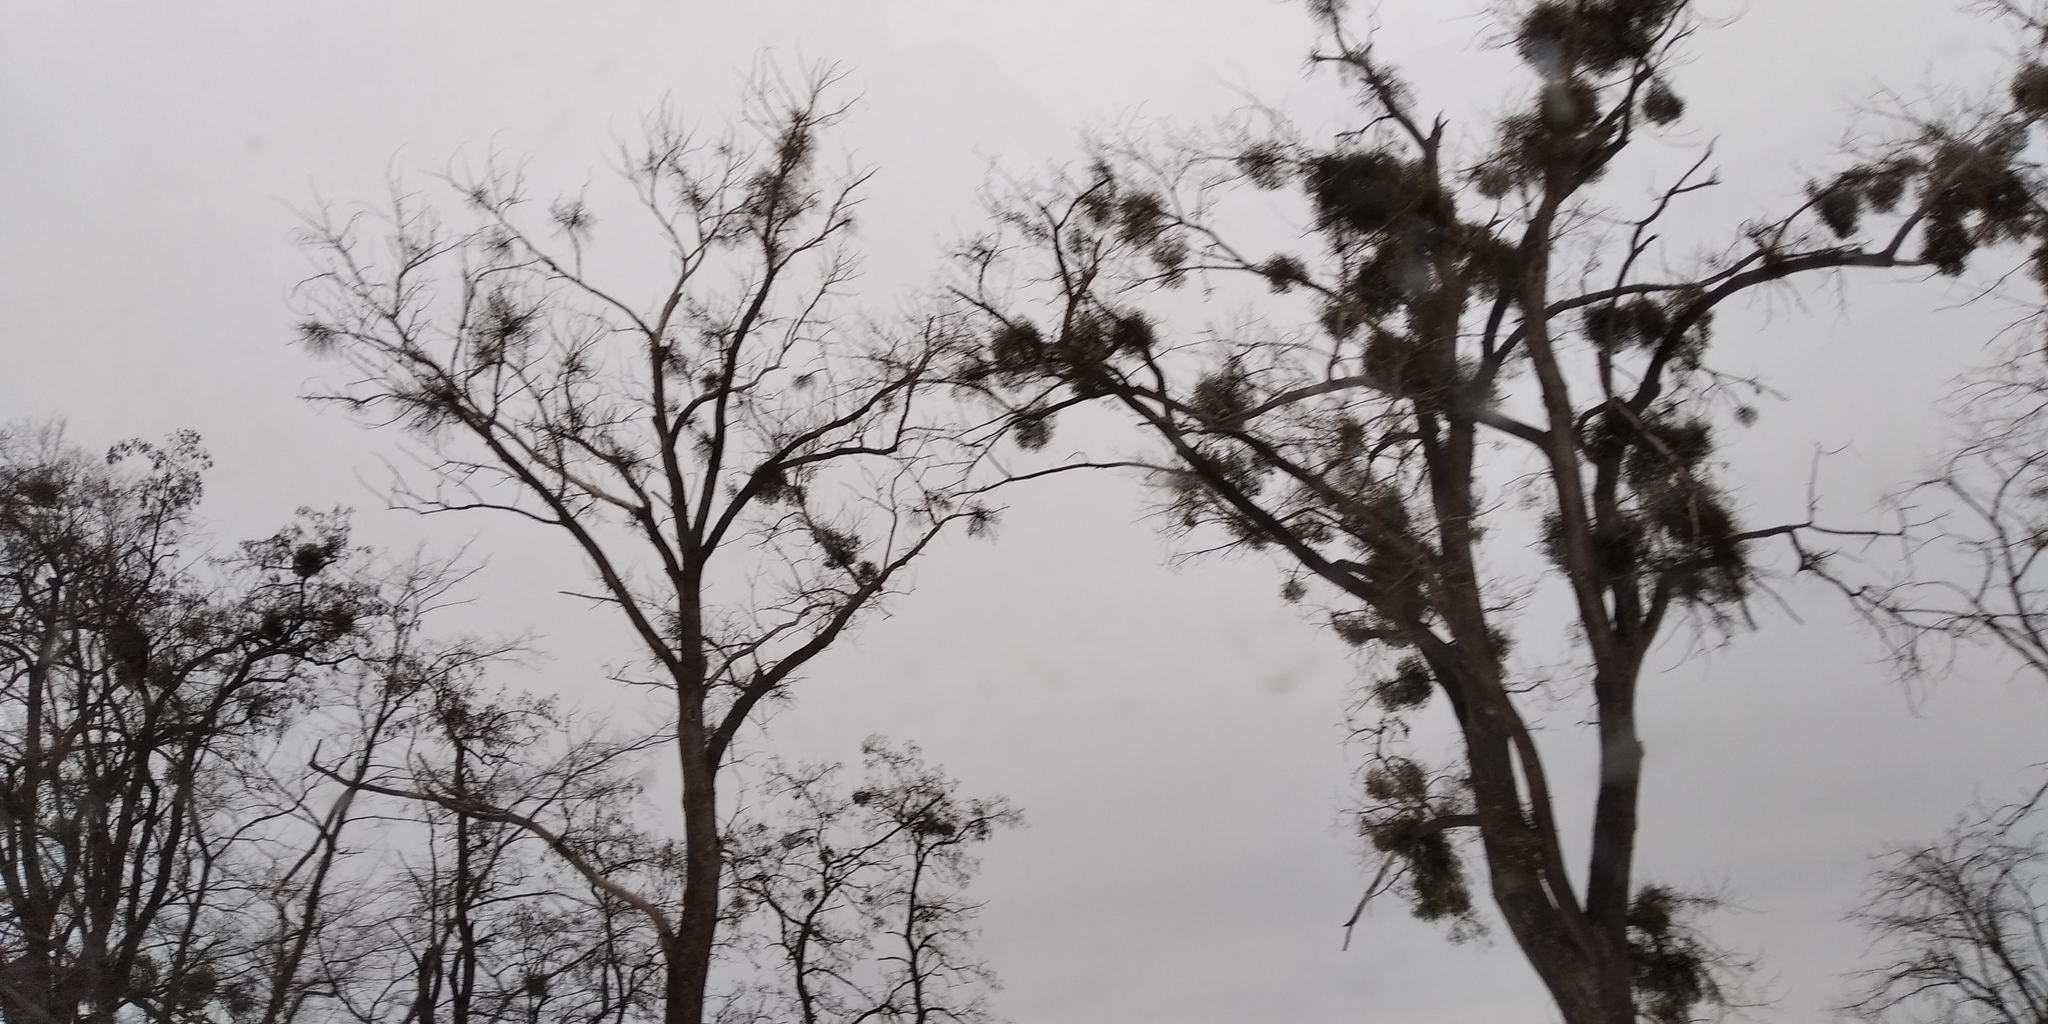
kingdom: Plantae
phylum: Tracheophyta
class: Magnoliopsida
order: Santalales
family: Viscaceae
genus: Viscum
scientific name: Viscum album
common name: Mistletoe
